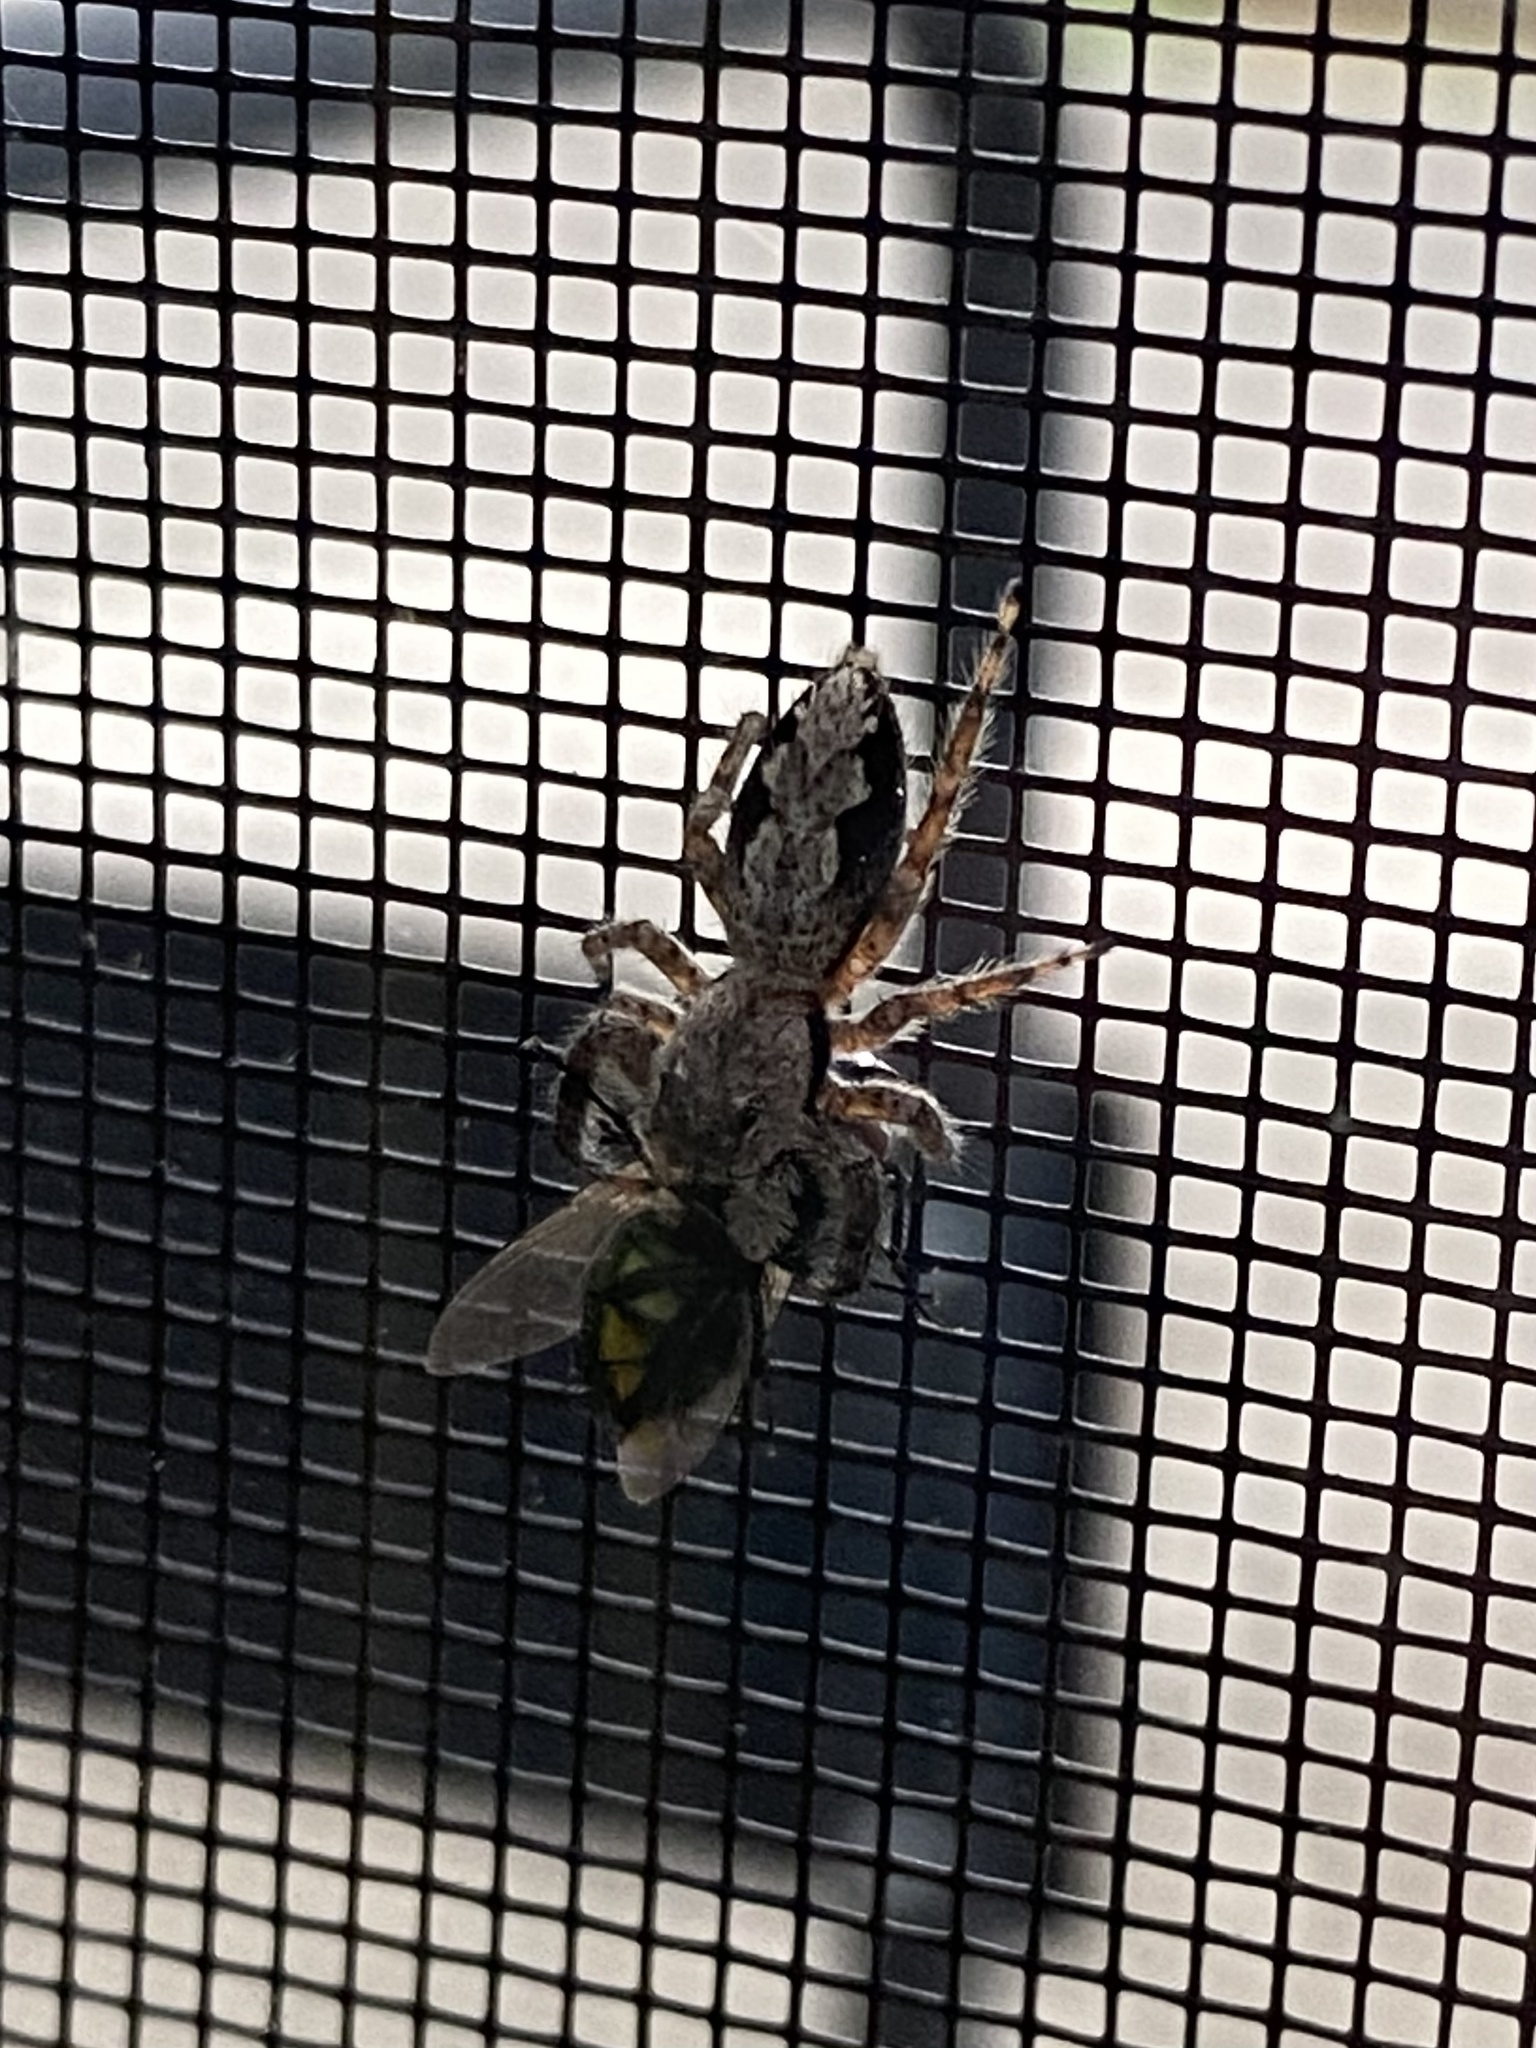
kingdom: Animalia
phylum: Arthropoda
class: Arachnida
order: Araneae
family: Salticidae
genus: Platycryptus
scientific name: Platycryptus undatus
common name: Tan jumping spider
